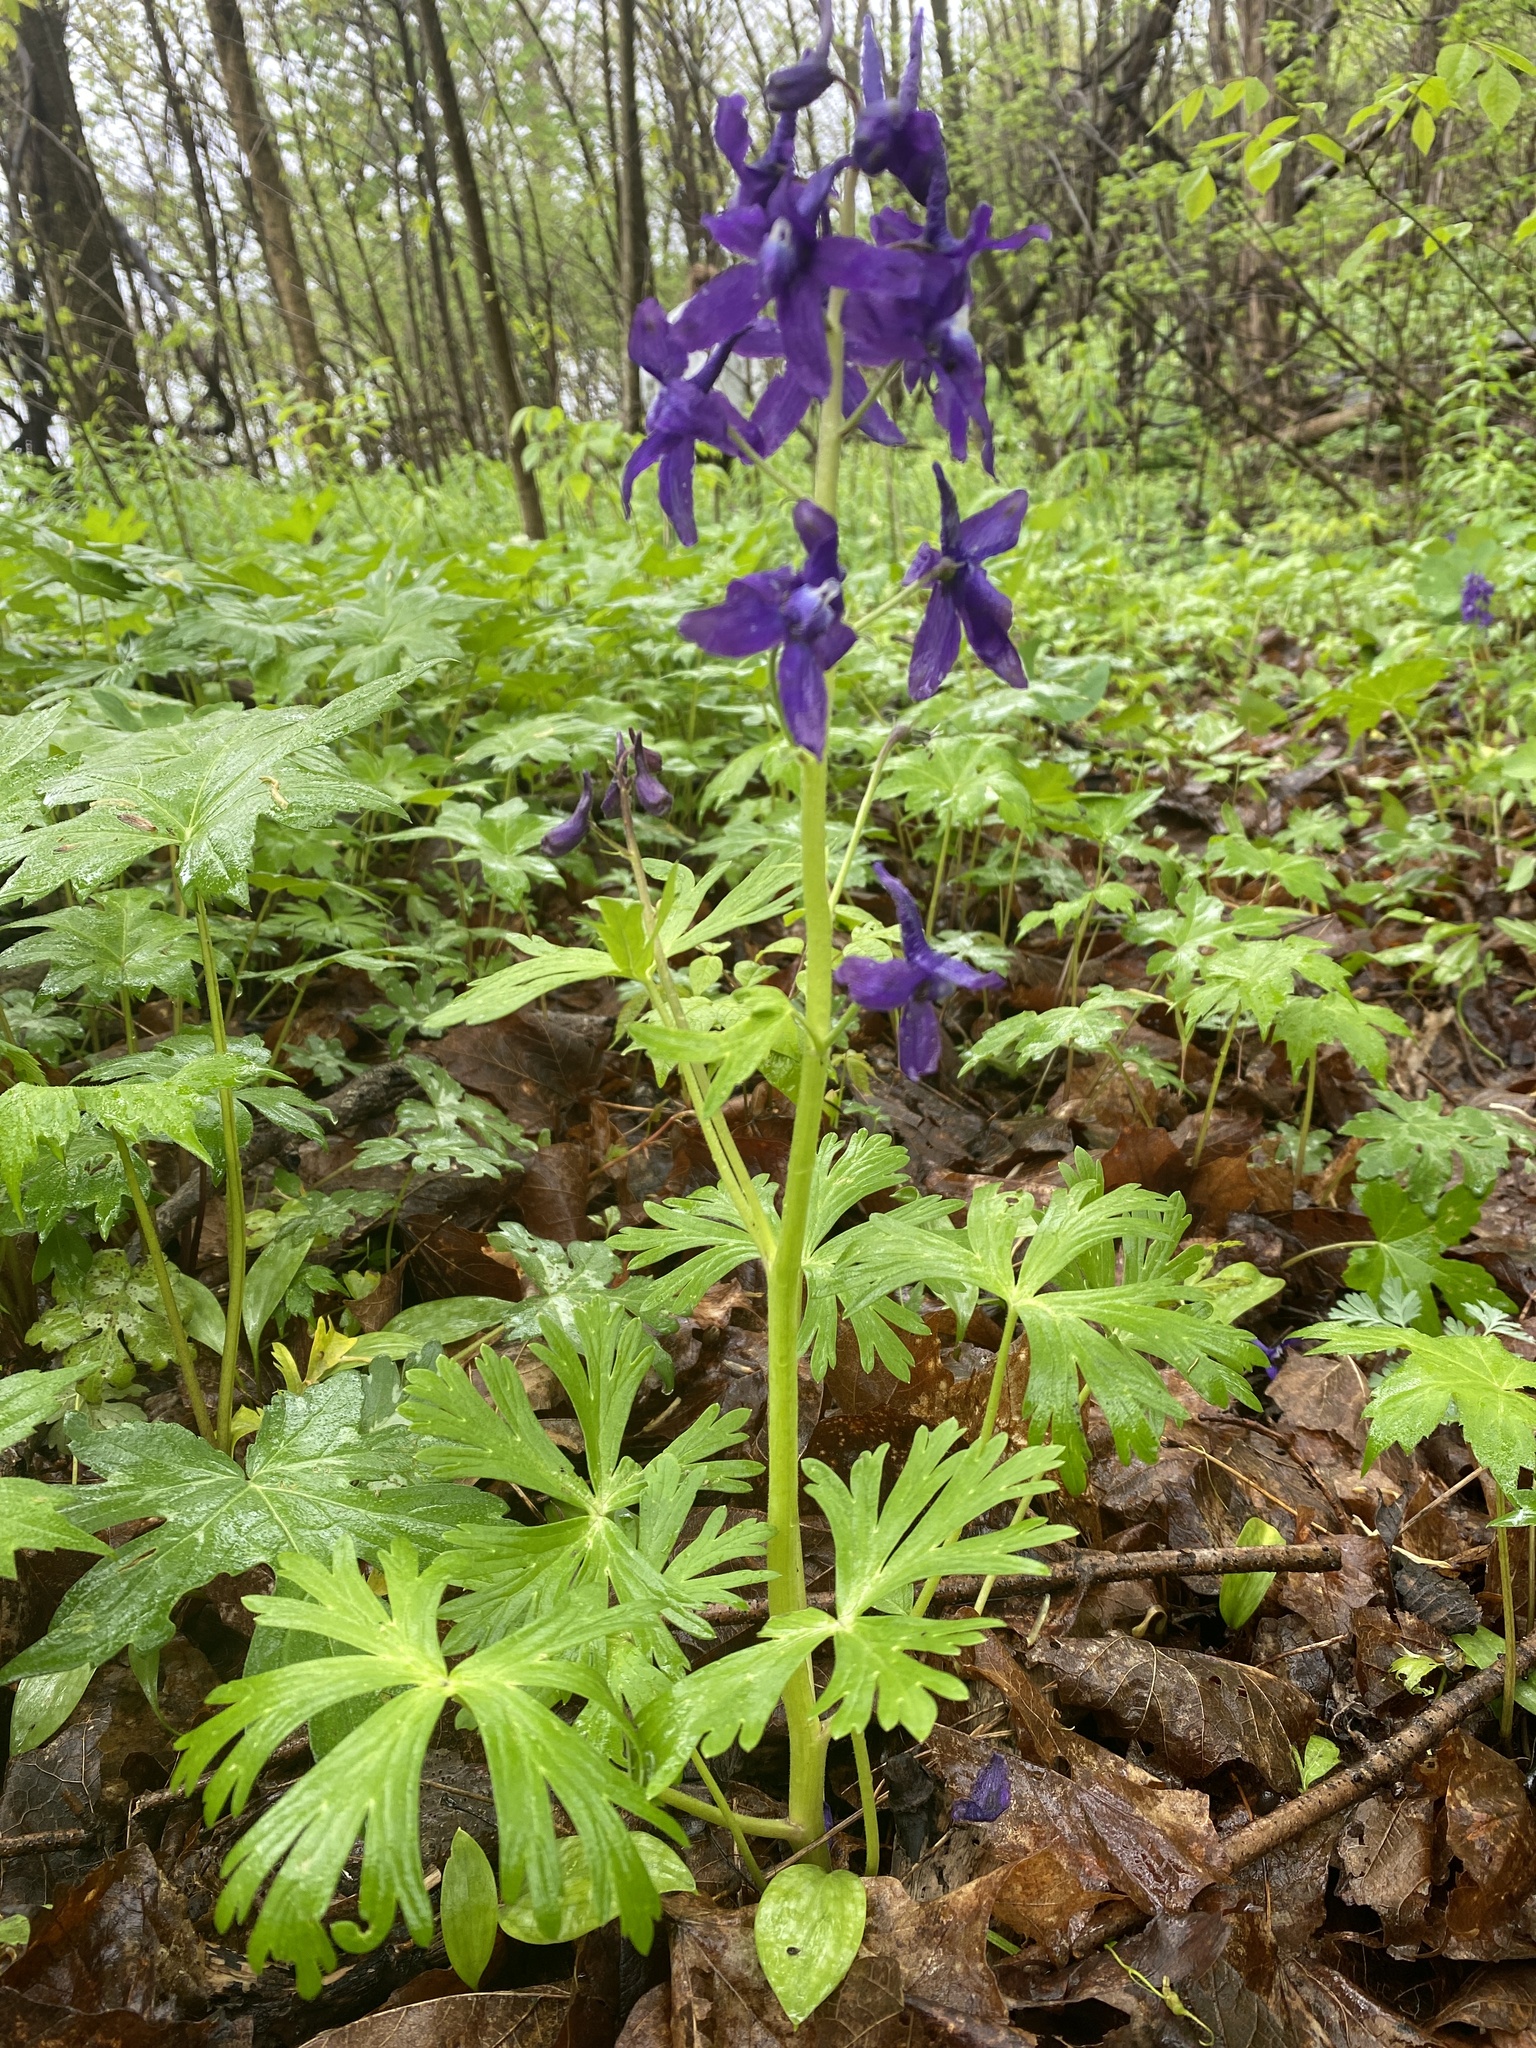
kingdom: Plantae
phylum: Tracheophyta
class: Magnoliopsida
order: Ranunculales
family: Ranunculaceae
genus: Delphinium
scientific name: Delphinium tricorne
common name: Dwarf larkspur
